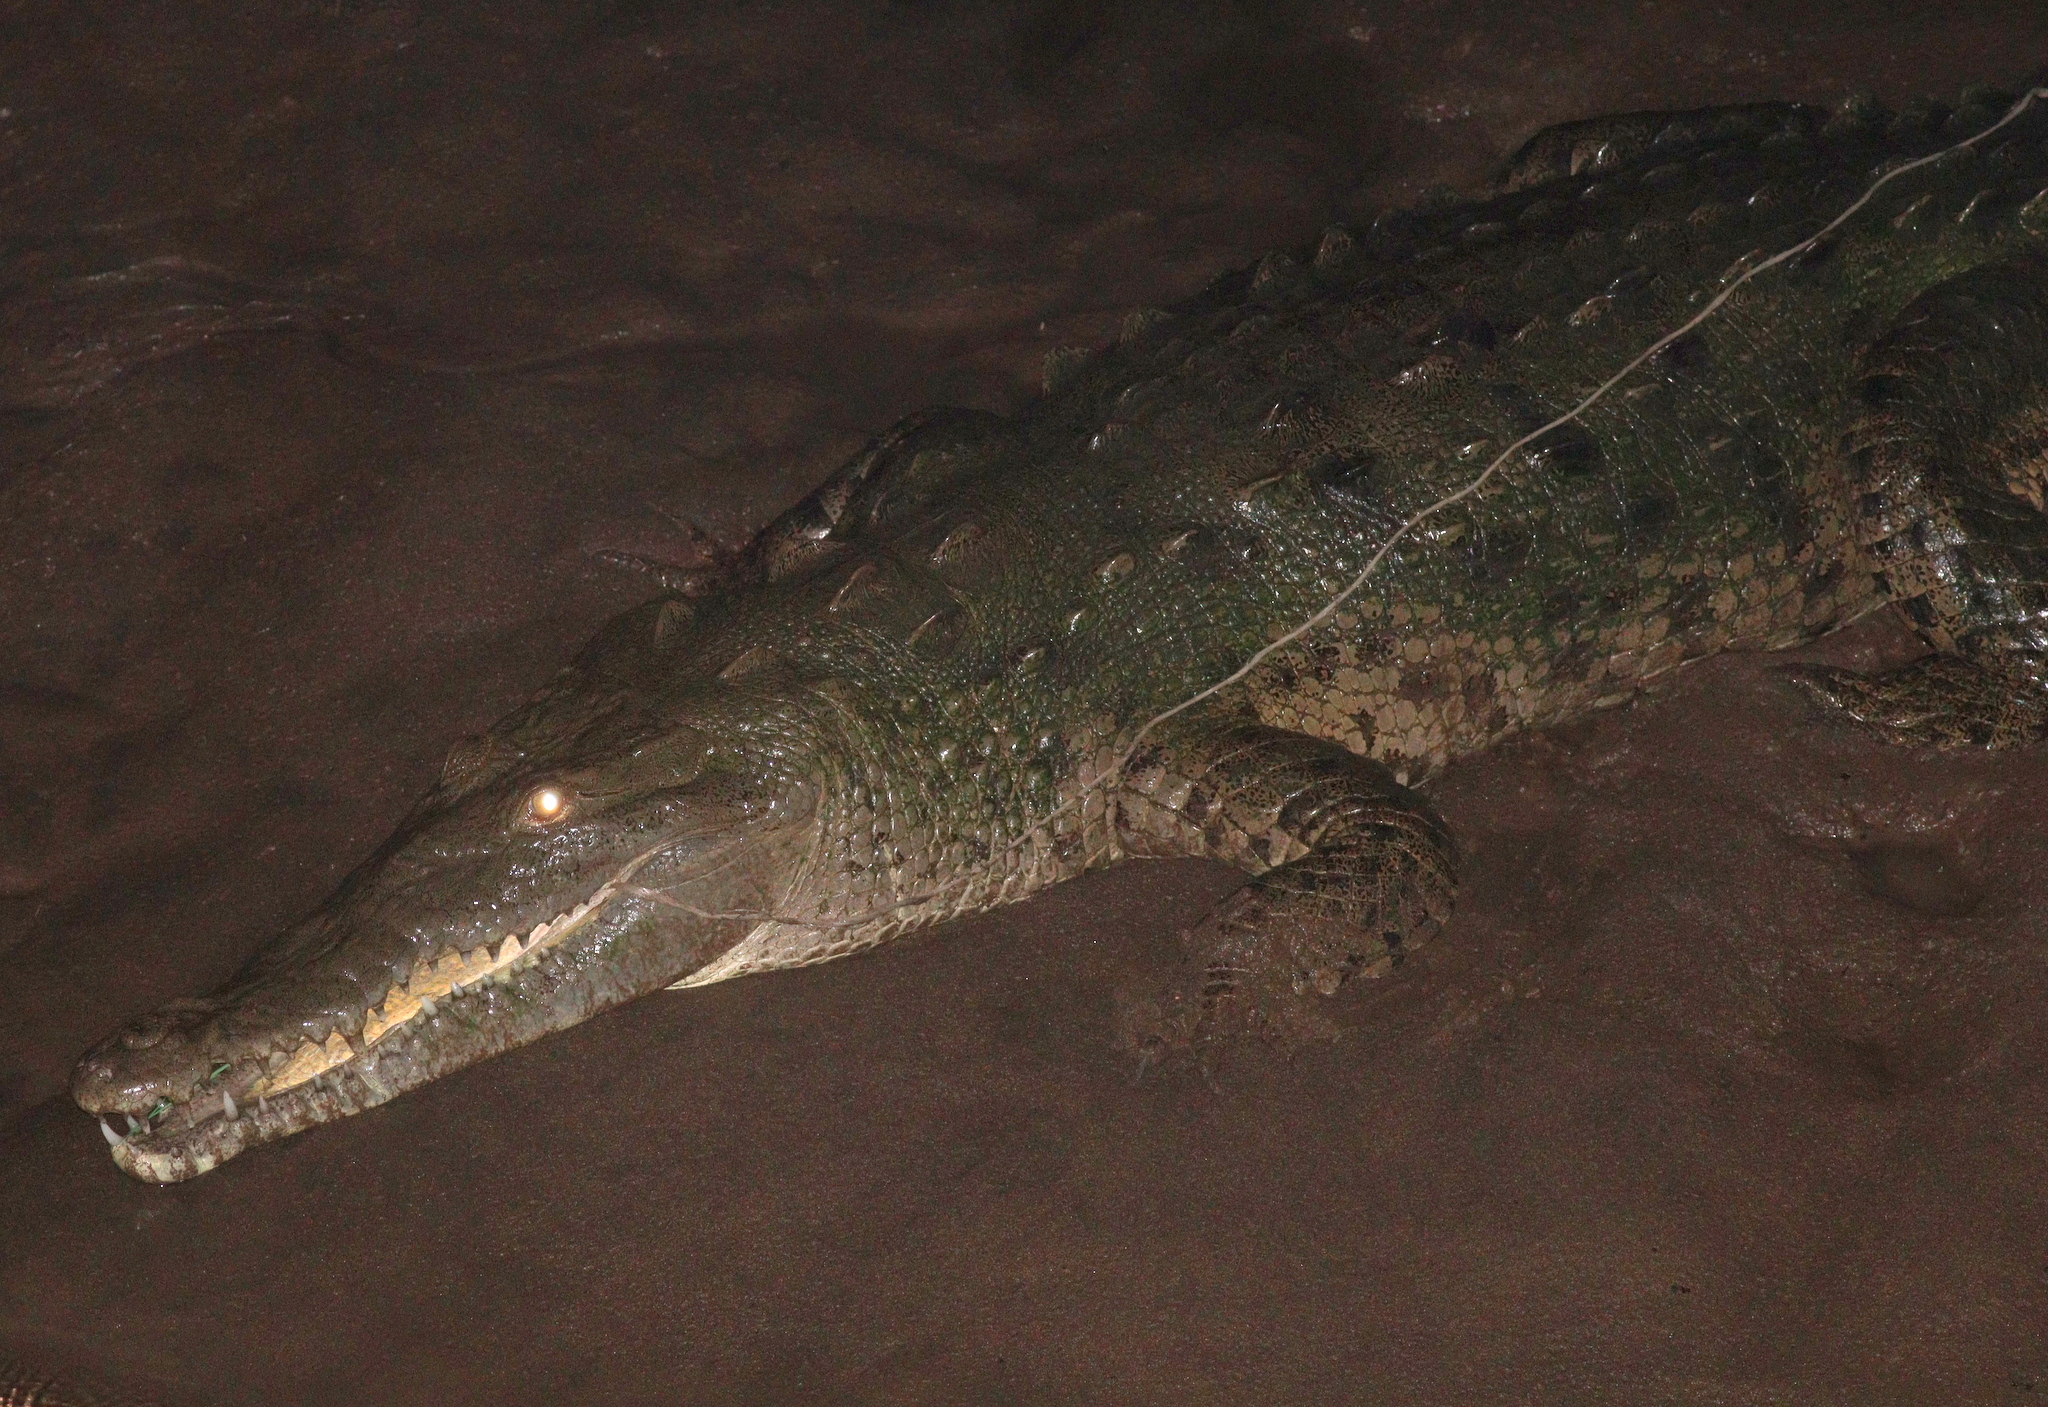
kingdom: Animalia
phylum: Chordata
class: Crocodylia
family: Crocodylidae
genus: Crocodylus
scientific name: Crocodylus acutus
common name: American crocodile
